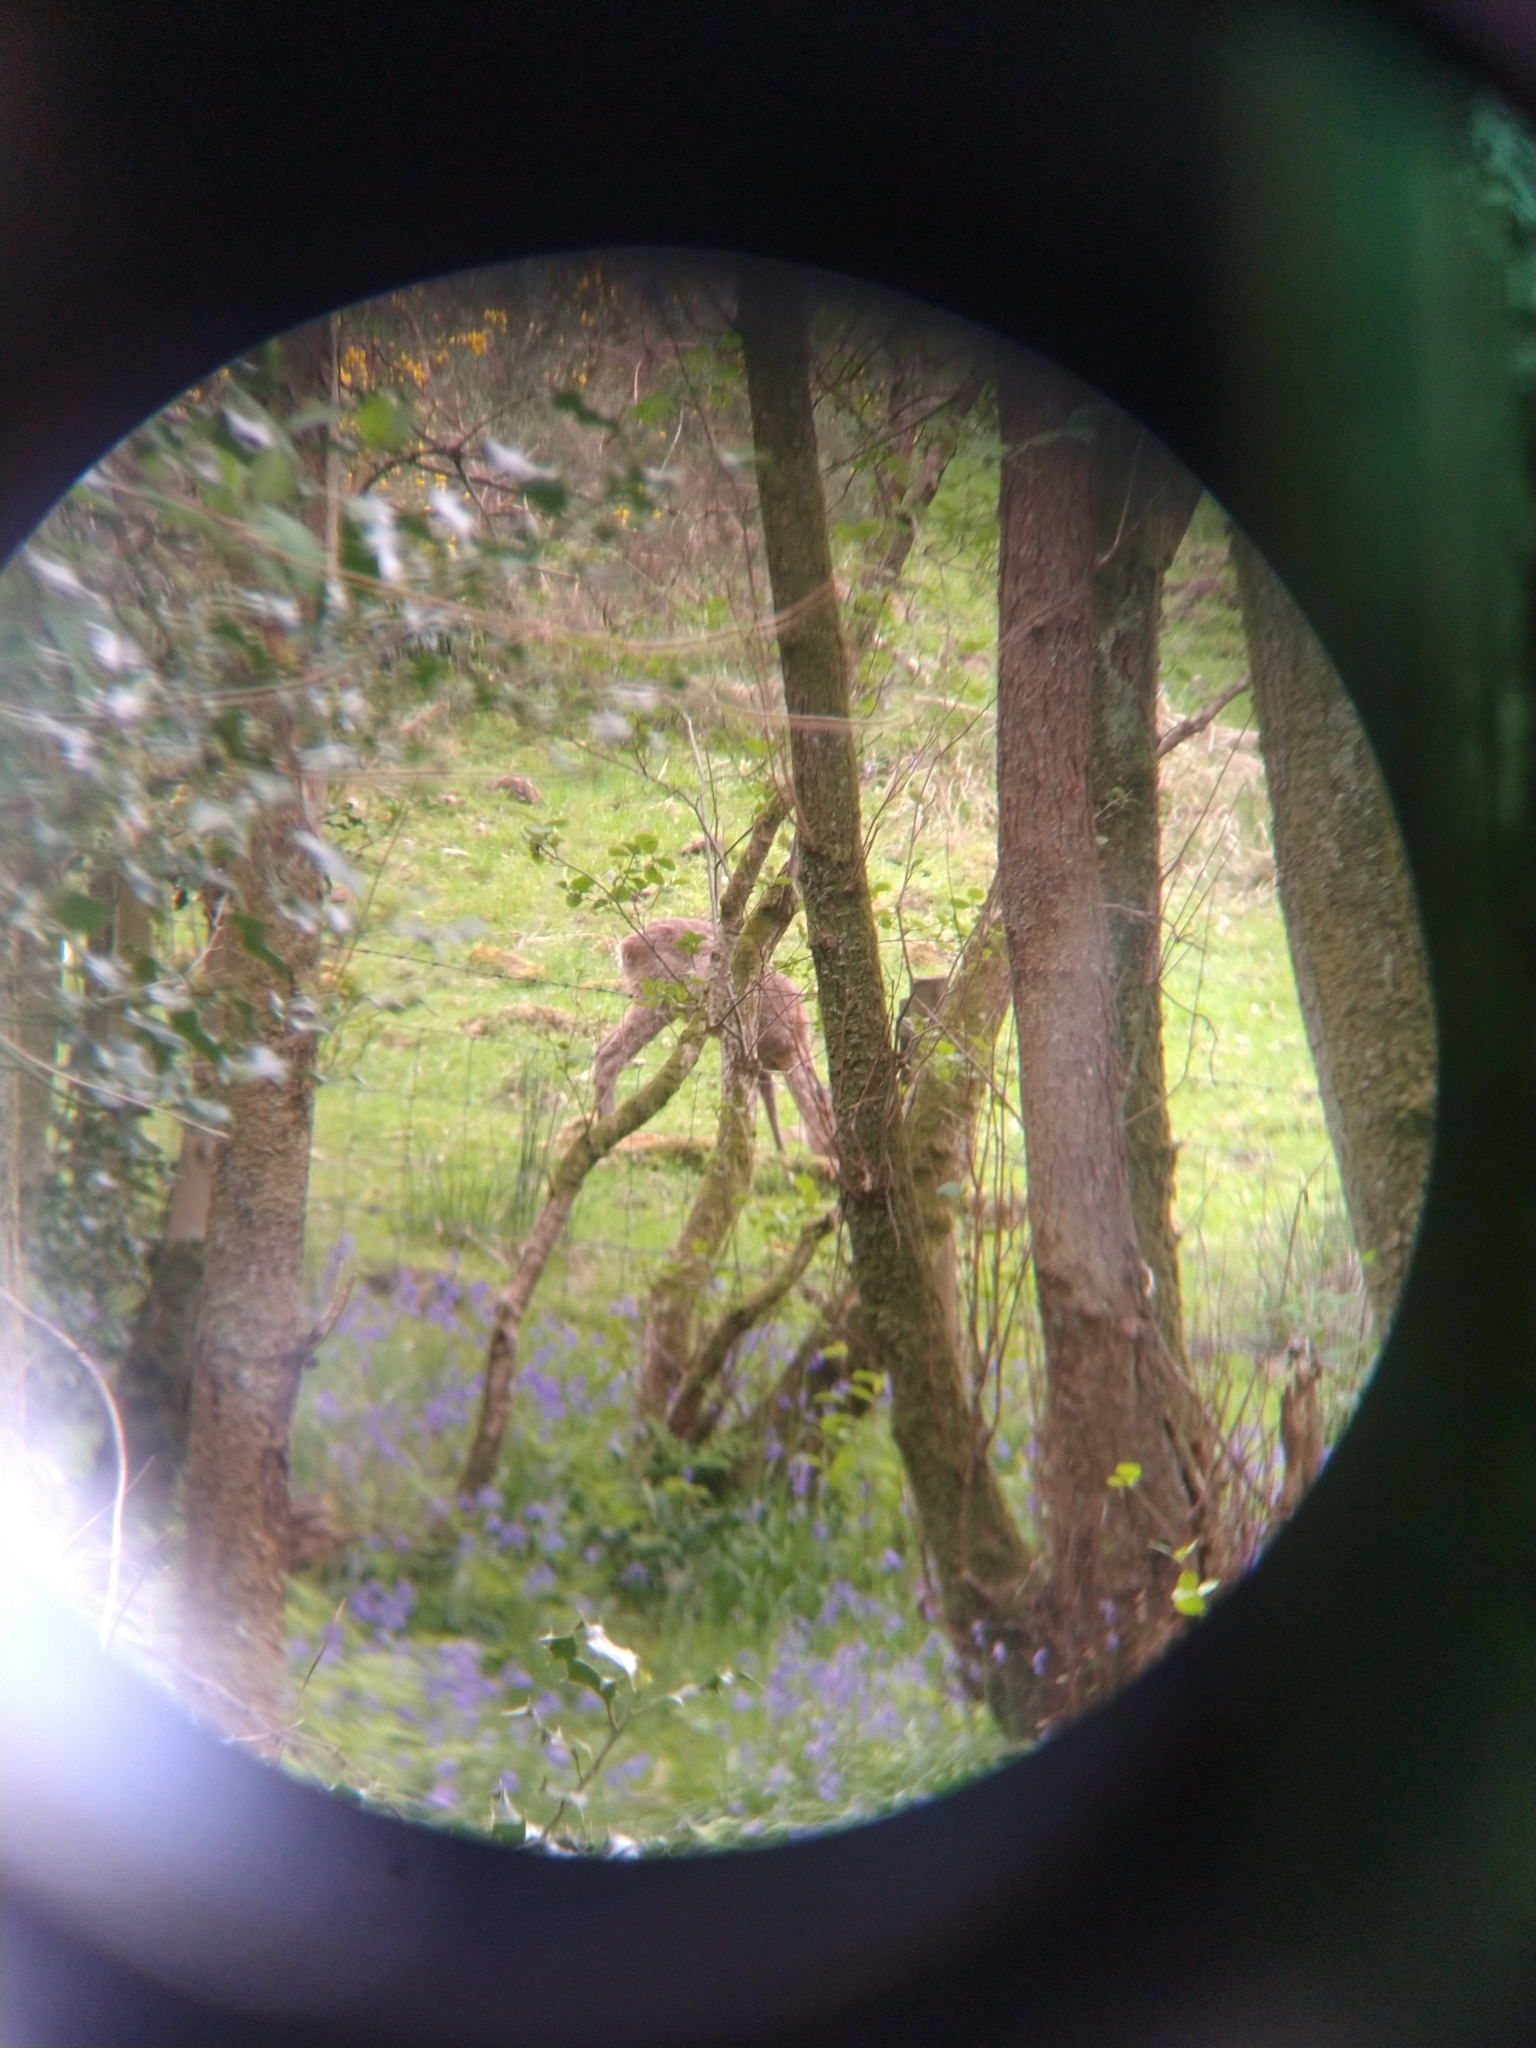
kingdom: Animalia
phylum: Chordata
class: Mammalia
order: Artiodactyla
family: Cervidae
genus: Capreolus
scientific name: Capreolus capreolus
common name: Western roe deer
